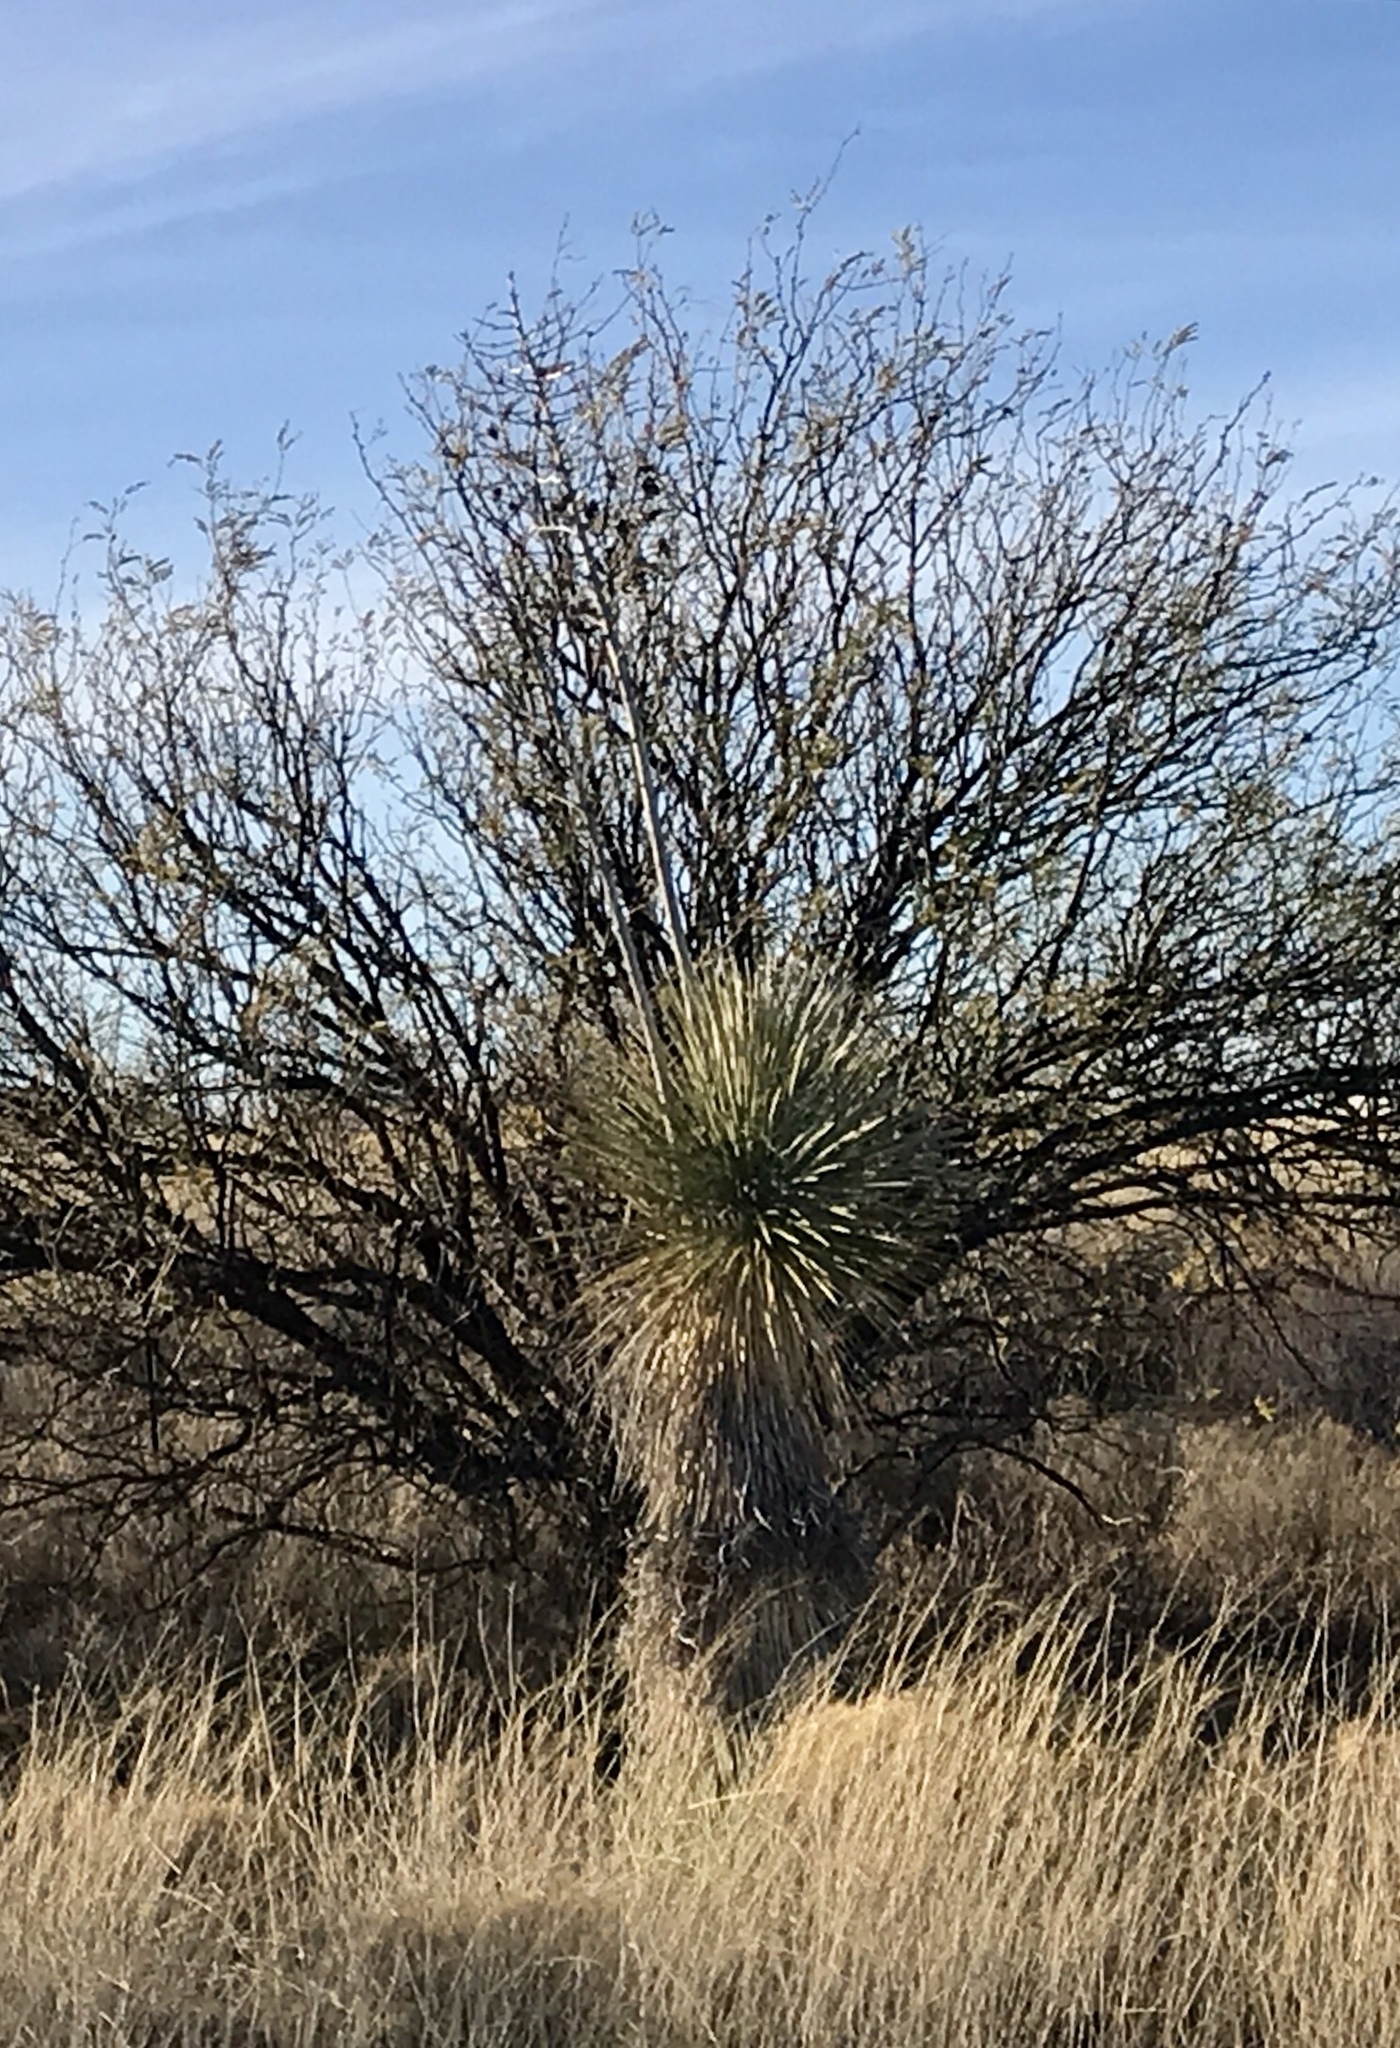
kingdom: Plantae
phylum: Tracheophyta
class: Liliopsida
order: Asparagales
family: Asparagaceae
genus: Yucca
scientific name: Yucca elata
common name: Palmella
